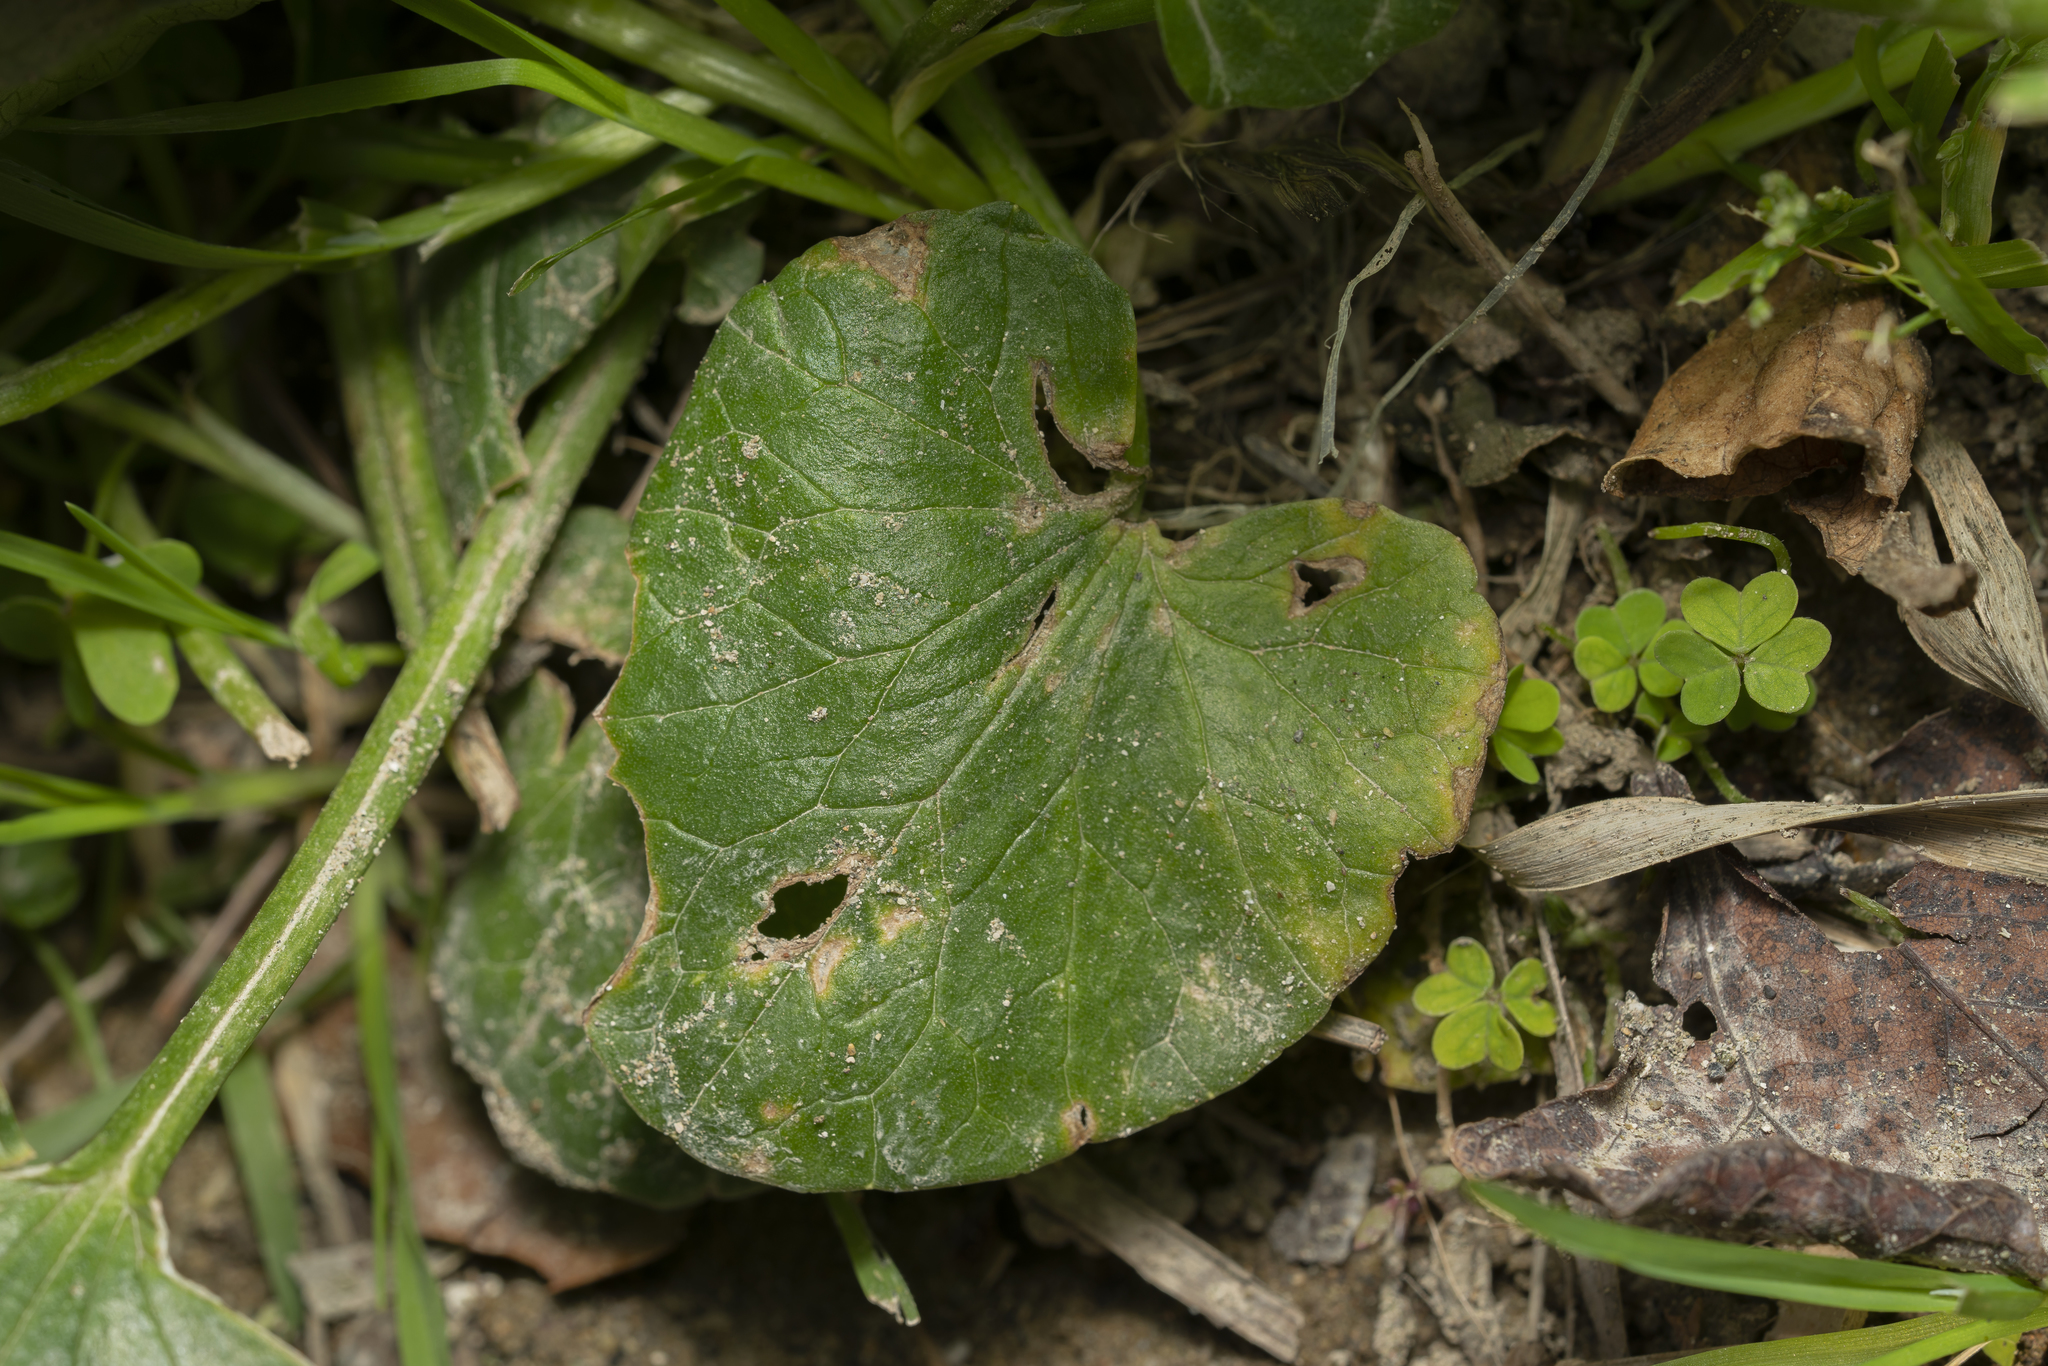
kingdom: Plantae
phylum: Tracheophyta
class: Magnoliopsida
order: Ranunculales
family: Ranunculaceae
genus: Ficaria
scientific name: Ficaria chrysocephala
